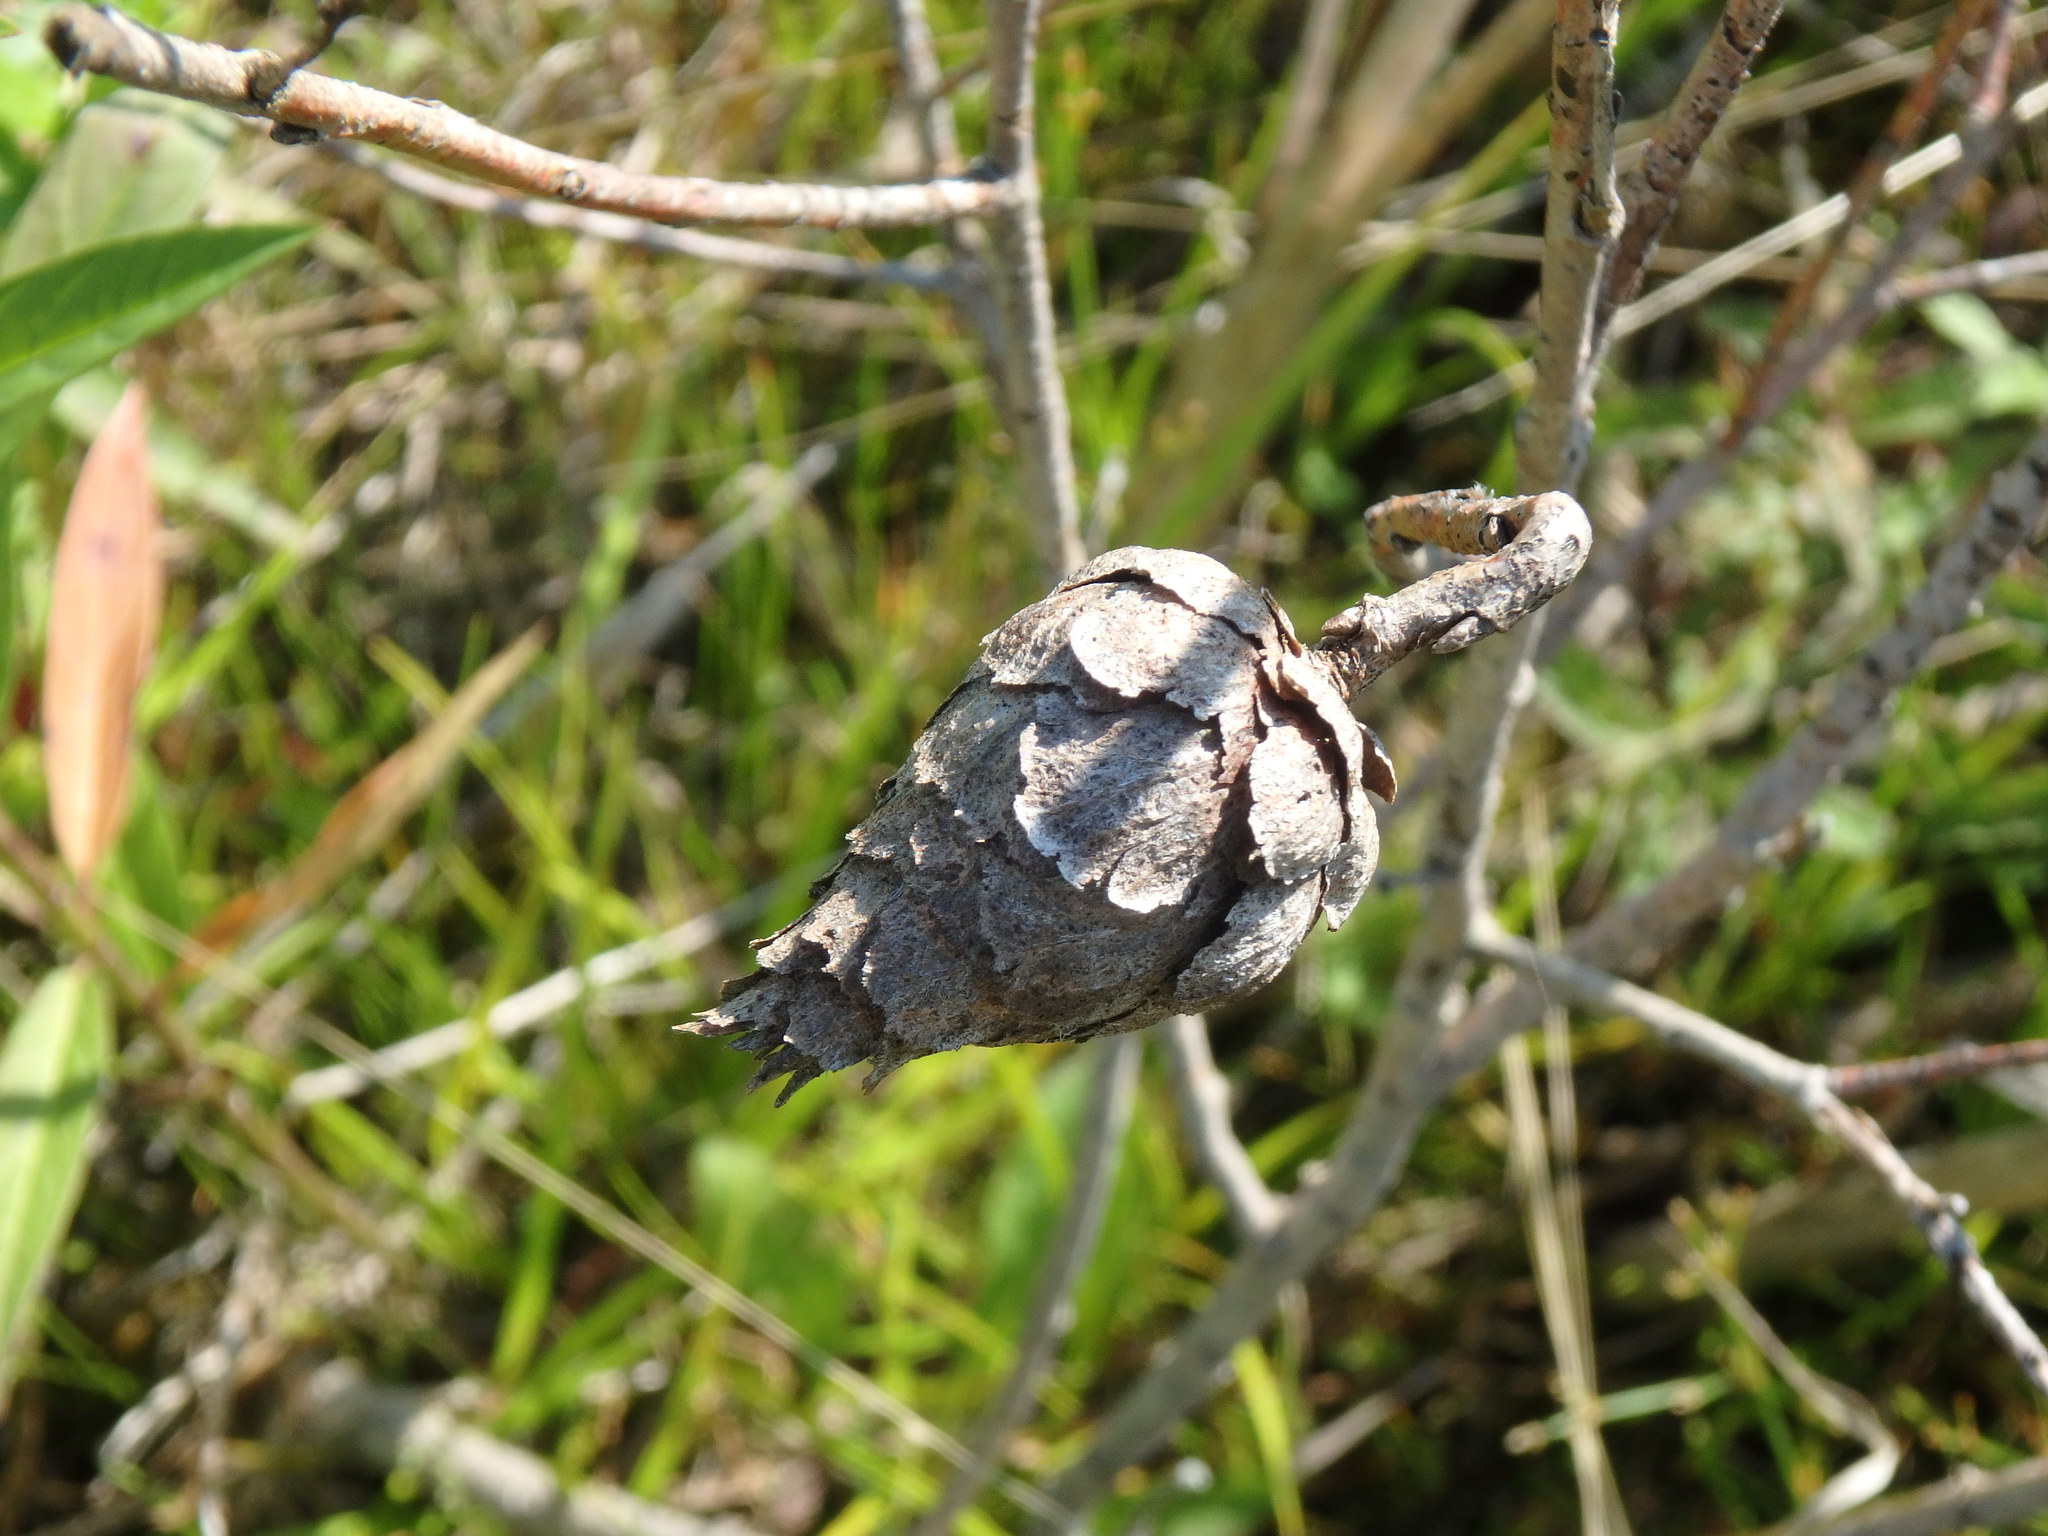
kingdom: Animalia
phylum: Arthropoda
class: Insecta
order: Diptera
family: Cecidomyiidae
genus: Rabdophaga
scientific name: Rabdophaga strobiloides
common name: Willow pinecone gall midge
